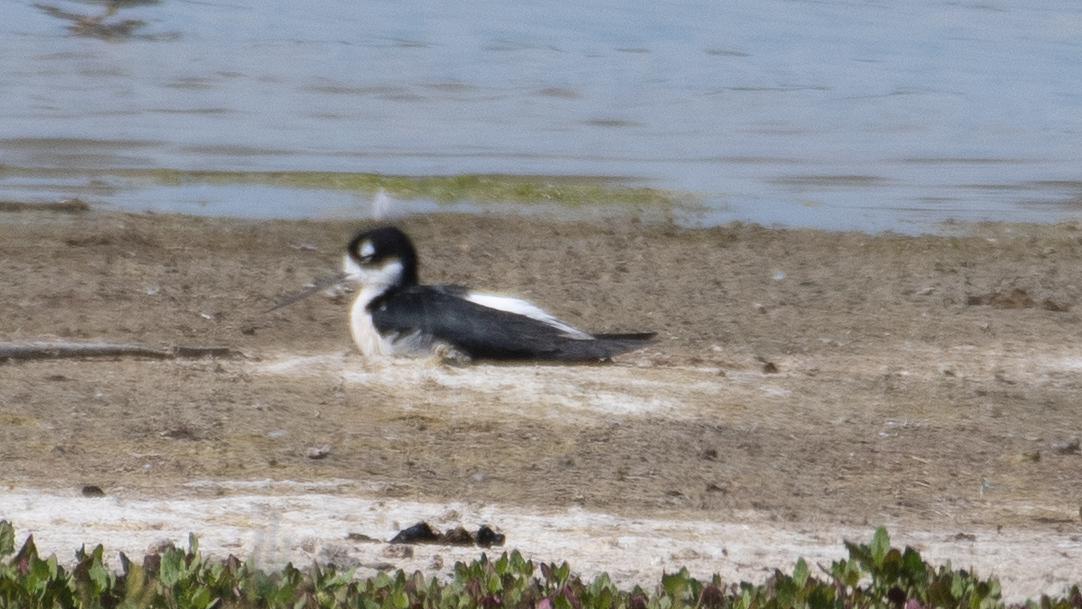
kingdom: Animalia
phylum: Chordata
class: Aves
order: Charadriiformes
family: Recurvirostridae
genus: Himantopus
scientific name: Himantopus mexicanus
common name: Black-necked stilt
